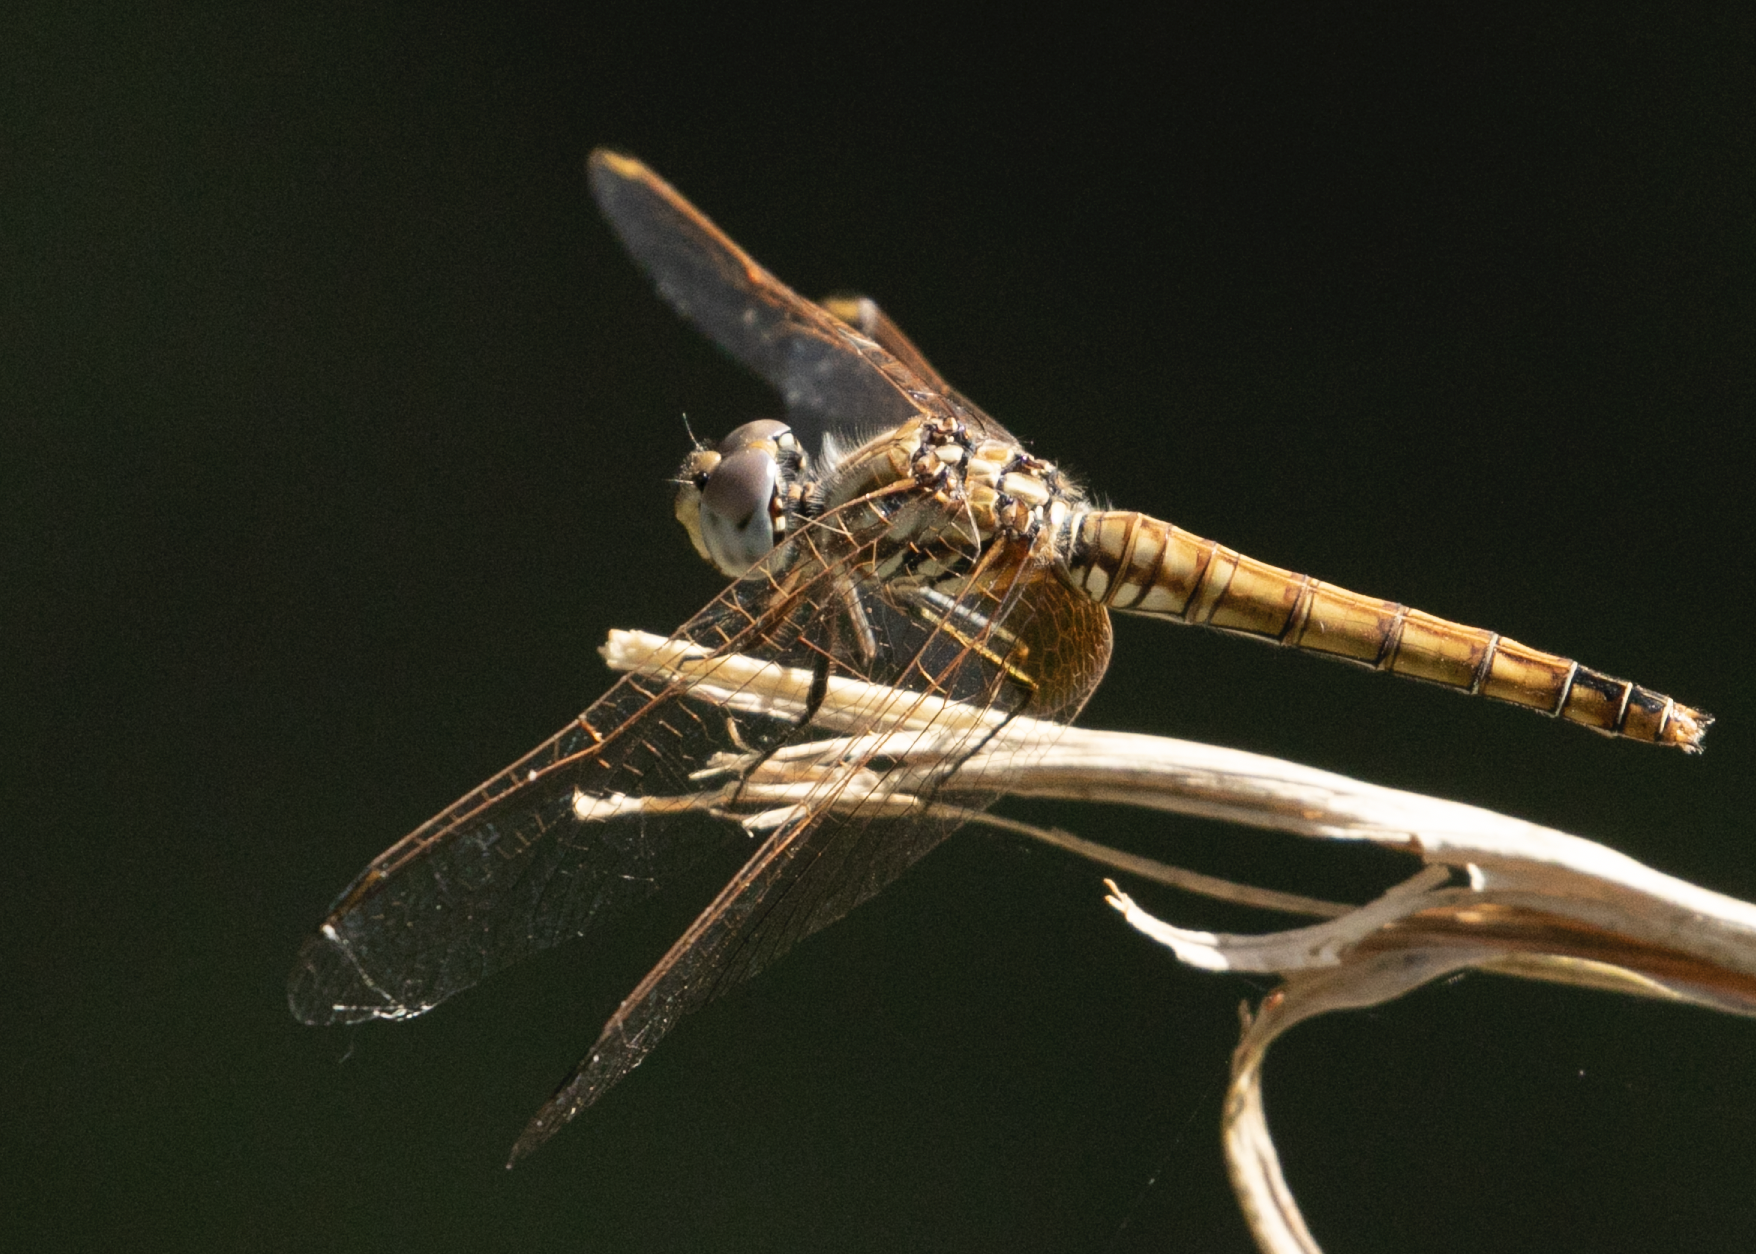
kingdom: Animalia
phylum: Arthropoda
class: Insecta
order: Odonata
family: Libellulidae
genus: Trithemis
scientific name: Trithemis annulata
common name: Violet dropwing
